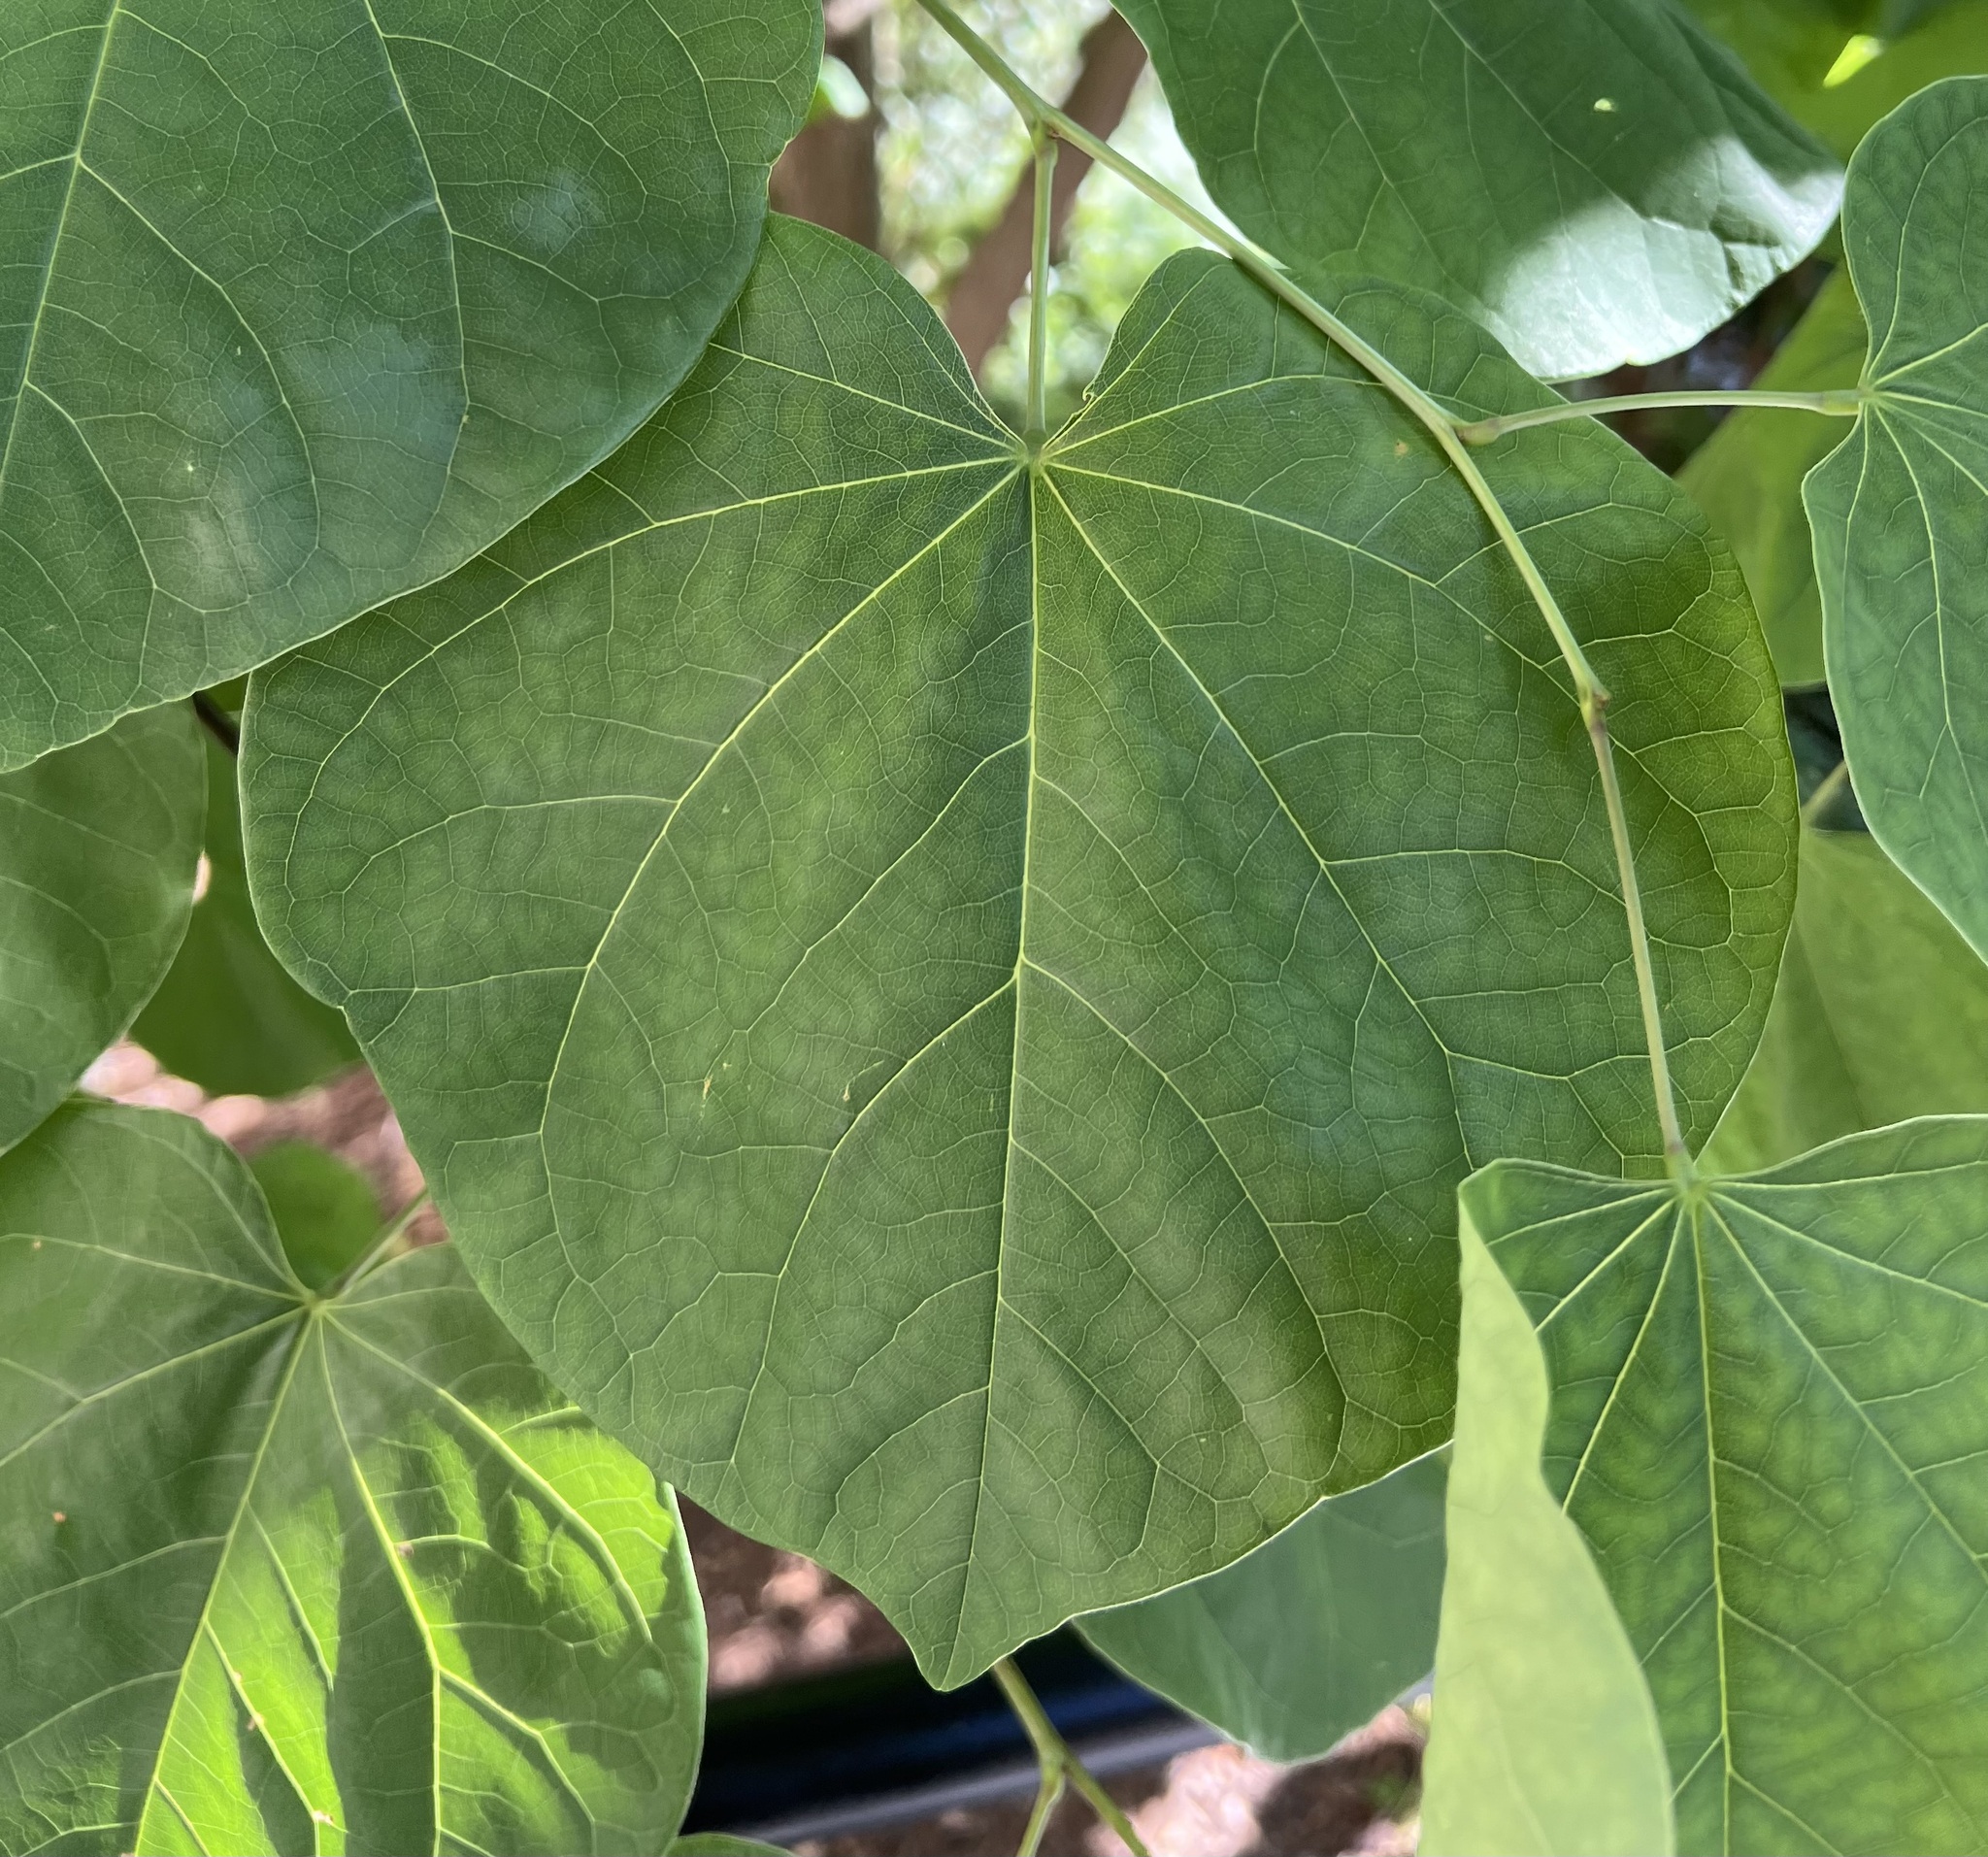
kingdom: Plantae
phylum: Tracheophyta
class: Magnoliopsida
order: Fabales
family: Fabaceae
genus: Cercis
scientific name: Cercis canadensis
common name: Eastern redbud
